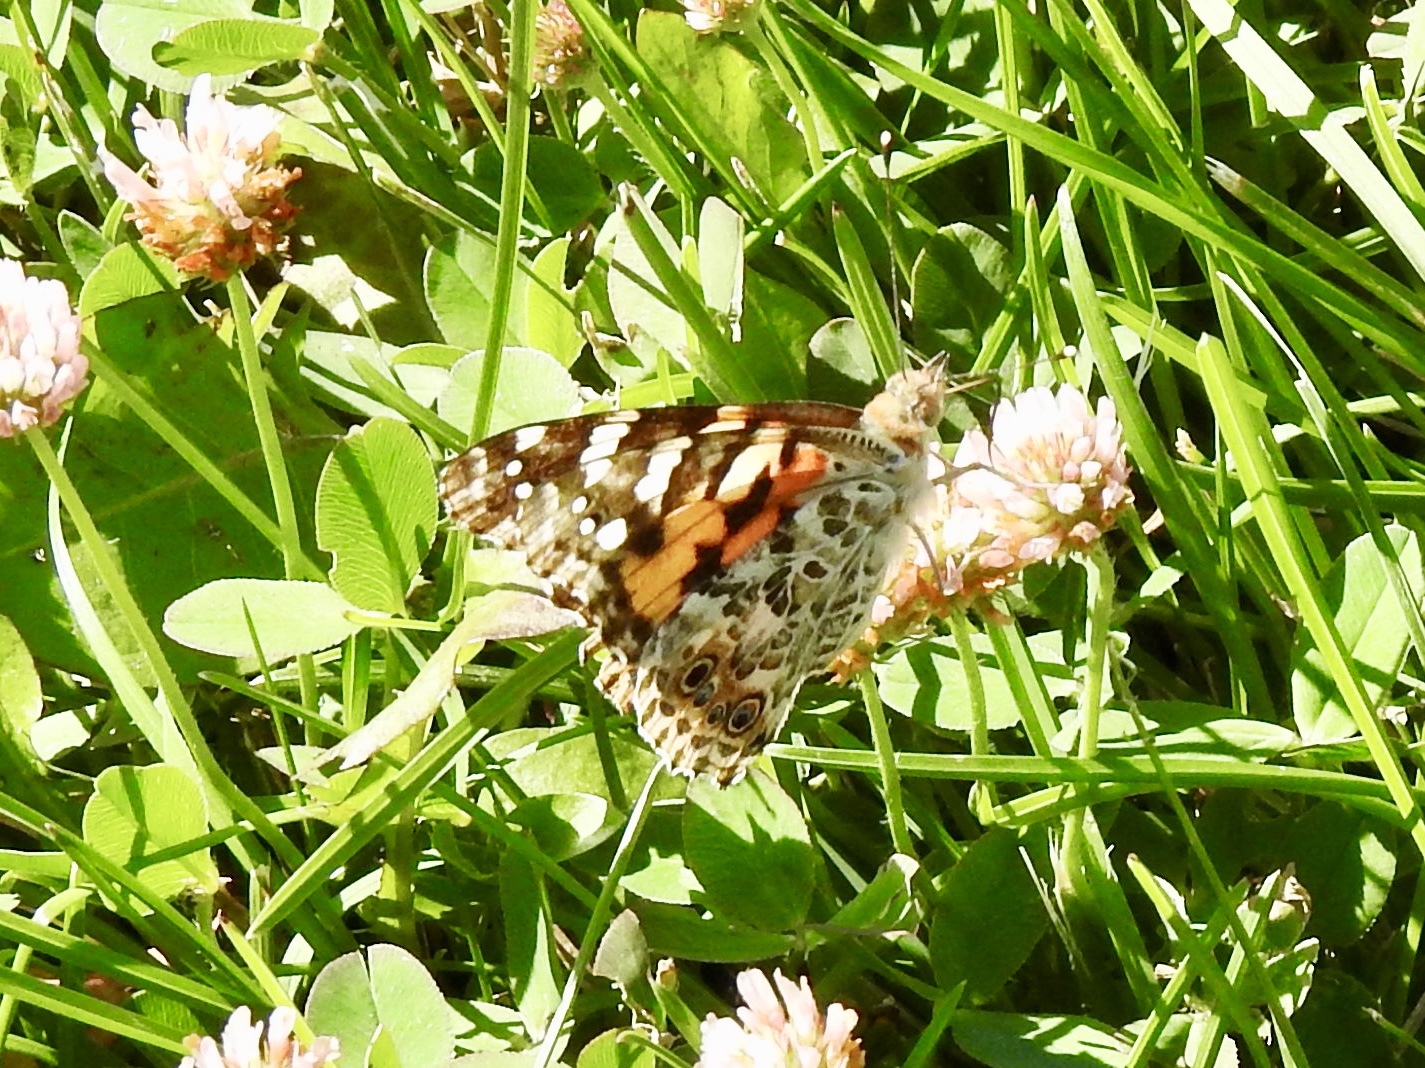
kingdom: Animalia
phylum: Arthropoda
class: Insecta
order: Lepidoptera
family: Nymphalidae
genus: Vanessa
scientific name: Vanessa cardui
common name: Painted lady
